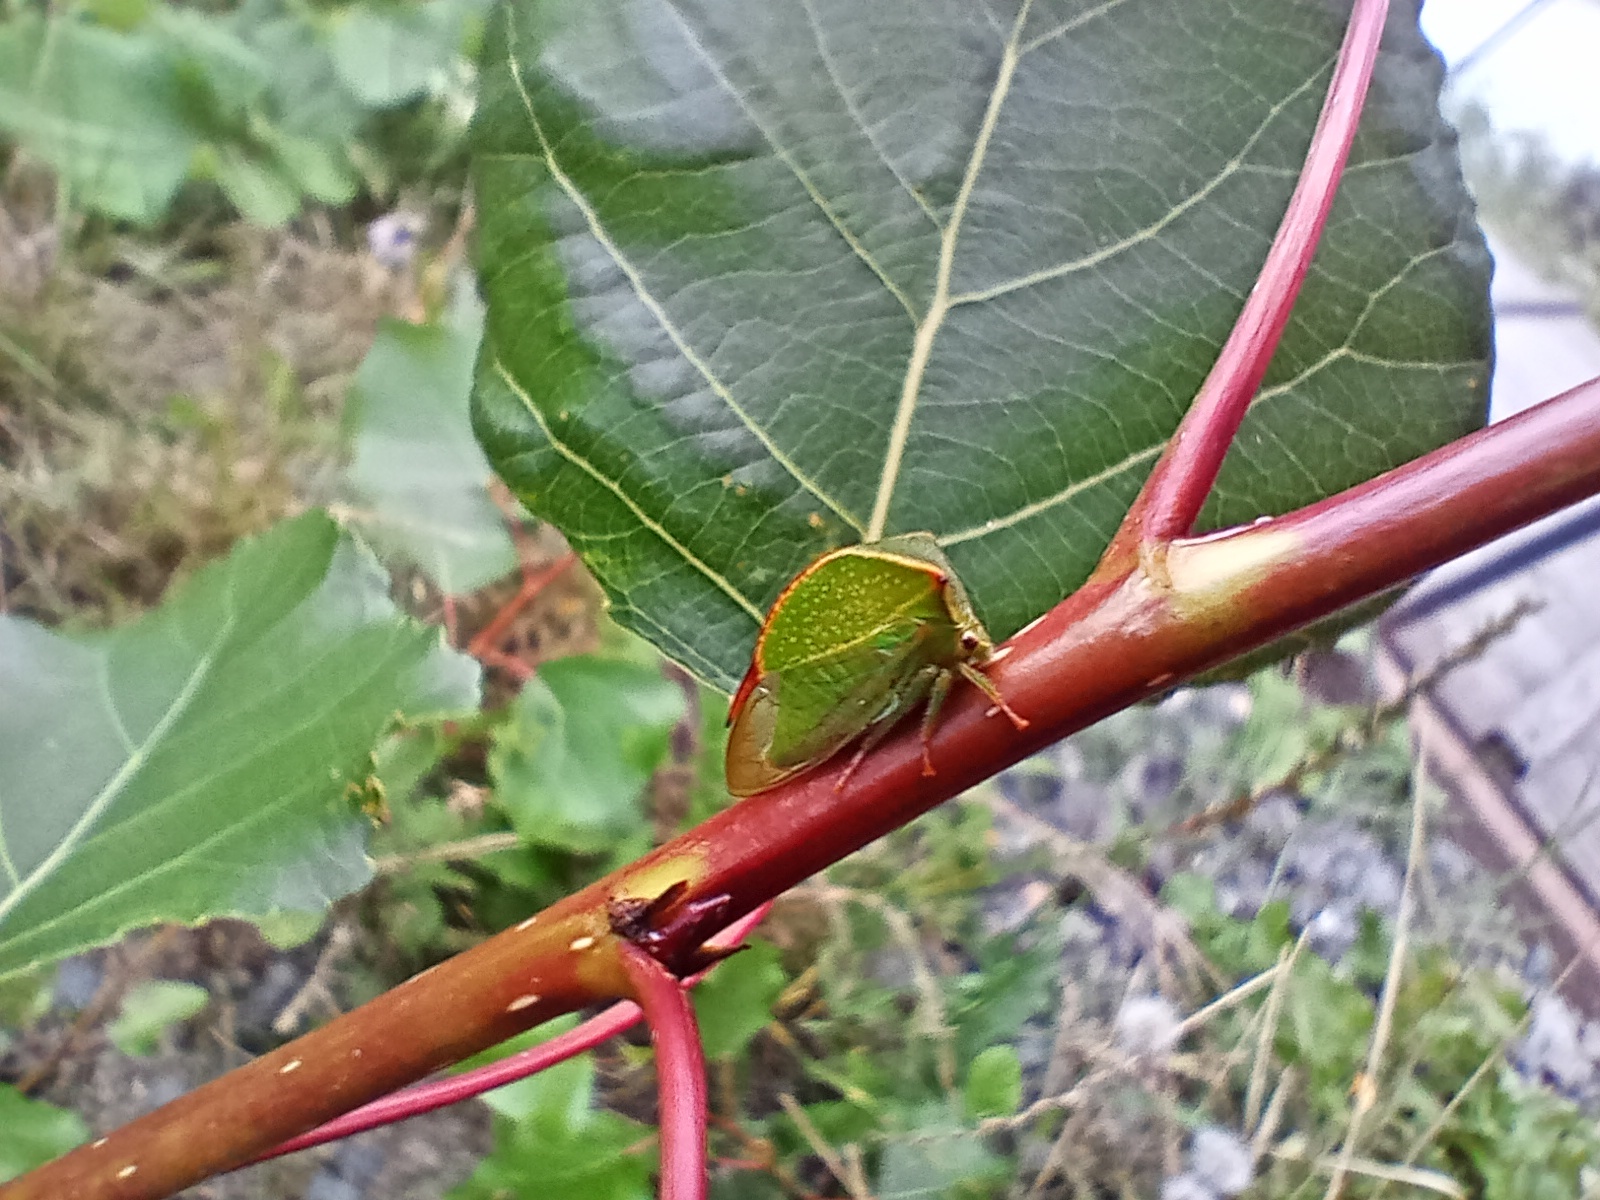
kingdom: Animalia
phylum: Arthropoda
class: Insecta
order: Hemiptera
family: Membracidae
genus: Stictocephala
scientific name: Stictocephala bisonia
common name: American buffalo treehopper
